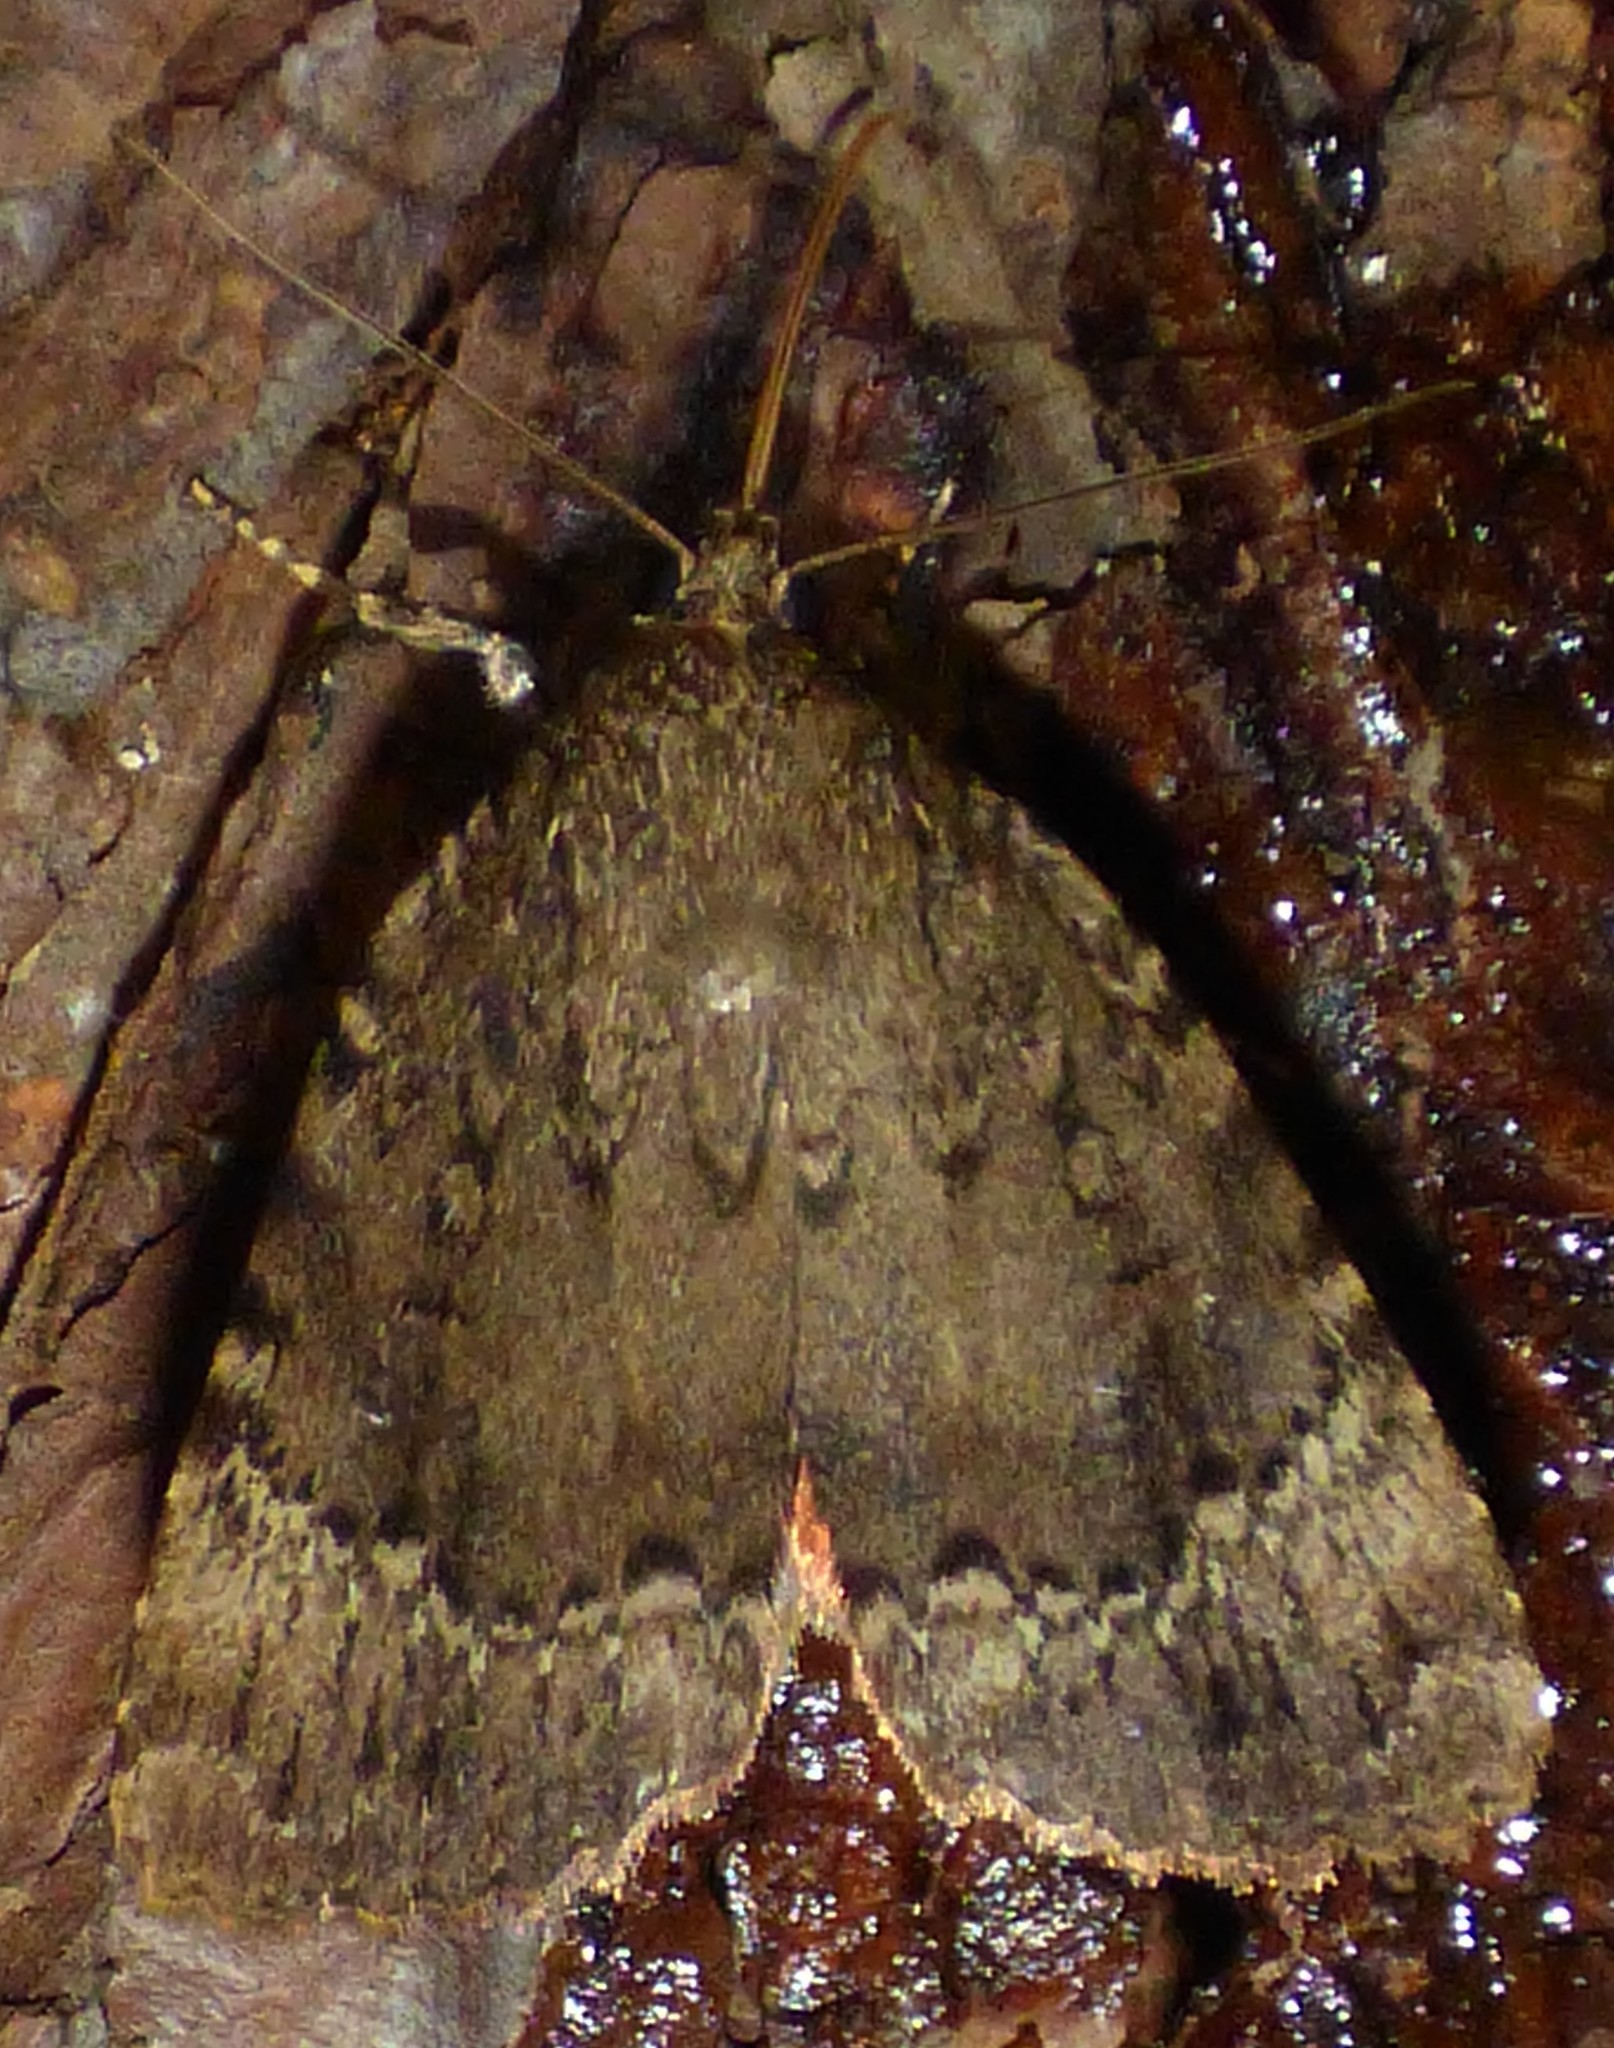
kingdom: Animalia
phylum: Arthropoda
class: Insecta
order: Lepidoptera
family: Noctuidae
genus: Amphipyra
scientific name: Amphipyra pyramidoides
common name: American copper underwing
